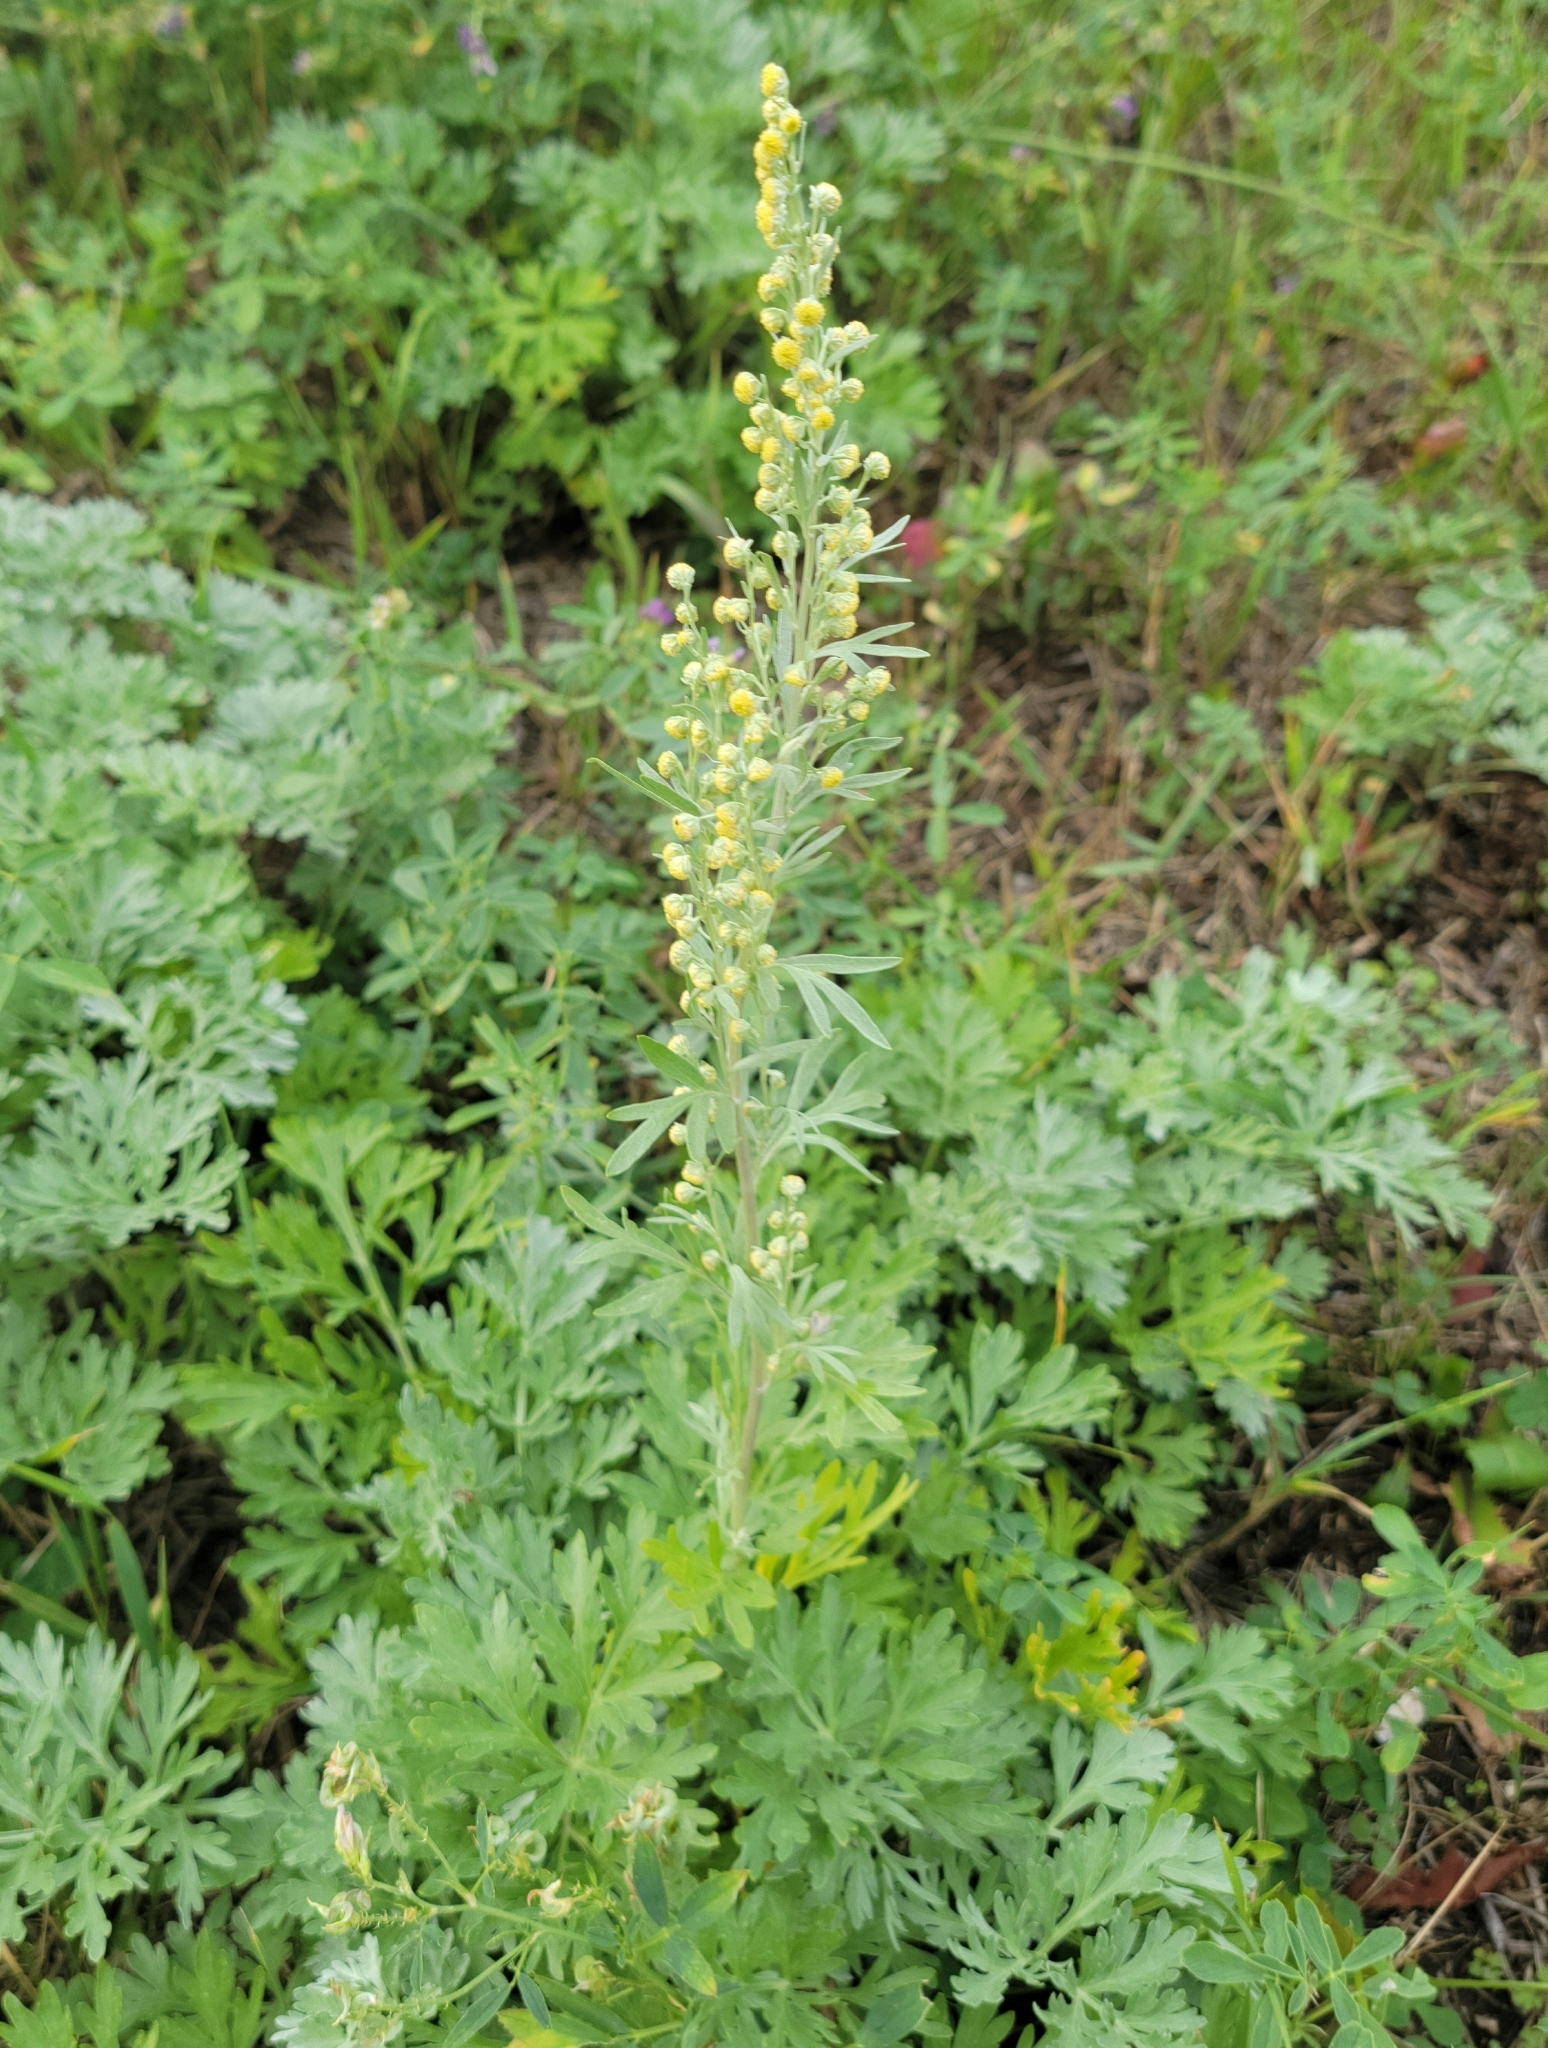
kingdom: Plantae
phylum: Tracheophyta
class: Magnoliopsida
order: Asterales
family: Asteraceae
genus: Artemisia
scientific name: Artemisia absinthium
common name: Wormwood
